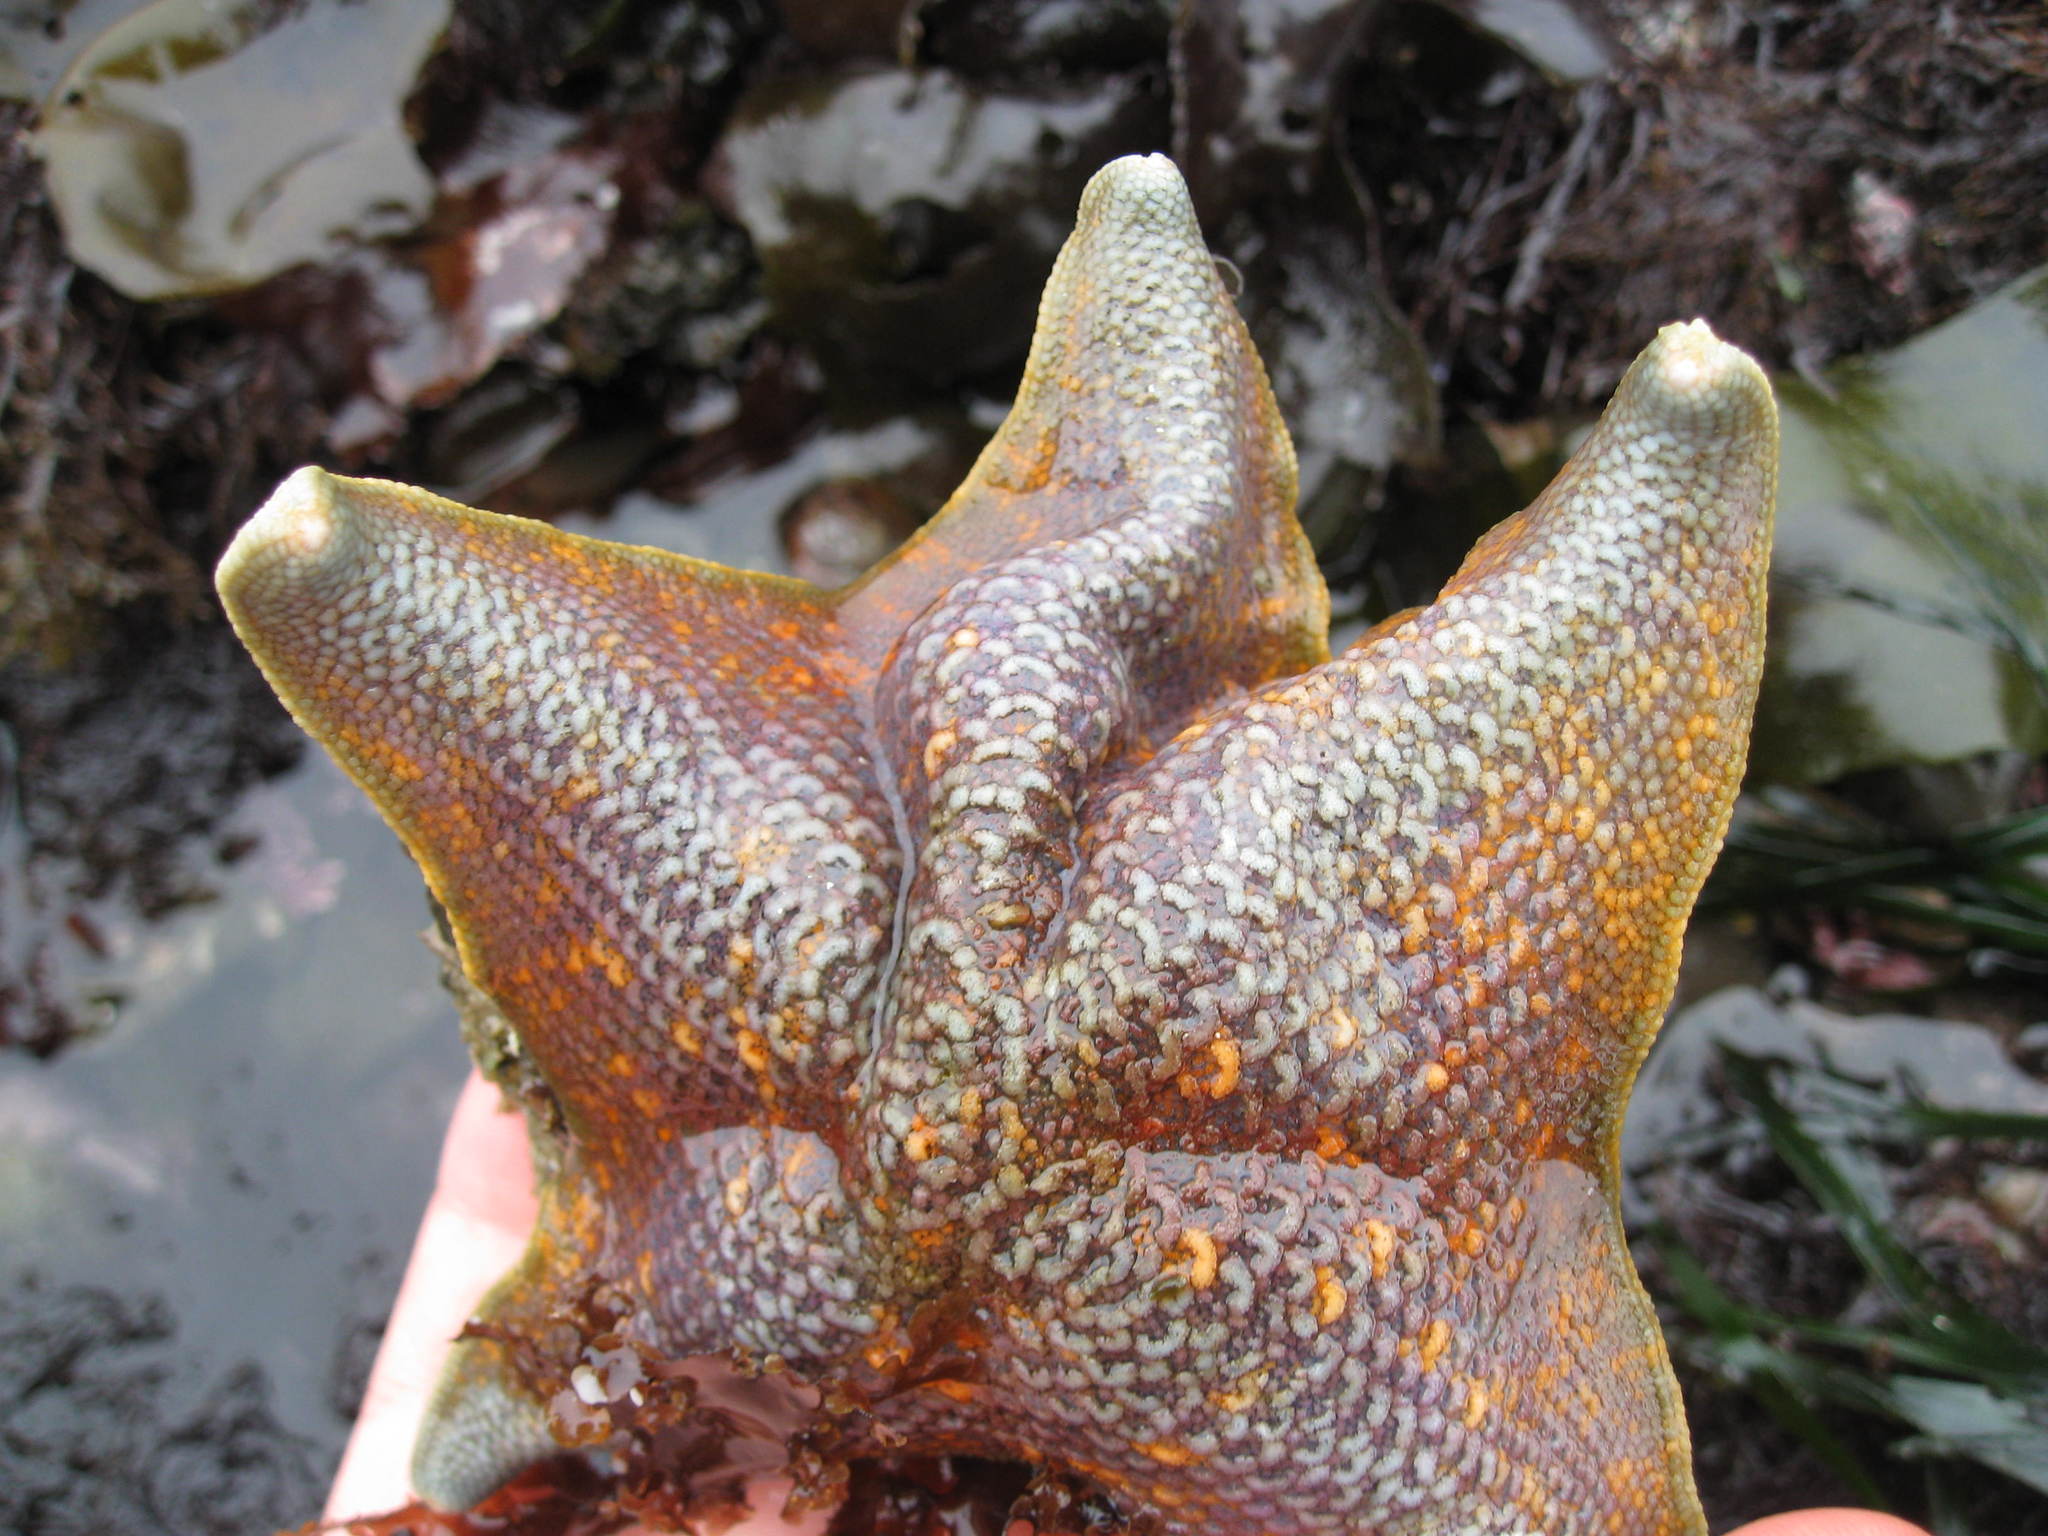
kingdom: Animalia
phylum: Echinodermata
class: Asteroidea
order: Valvatida
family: Asterinidae
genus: Patiria
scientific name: Patiria miniata
